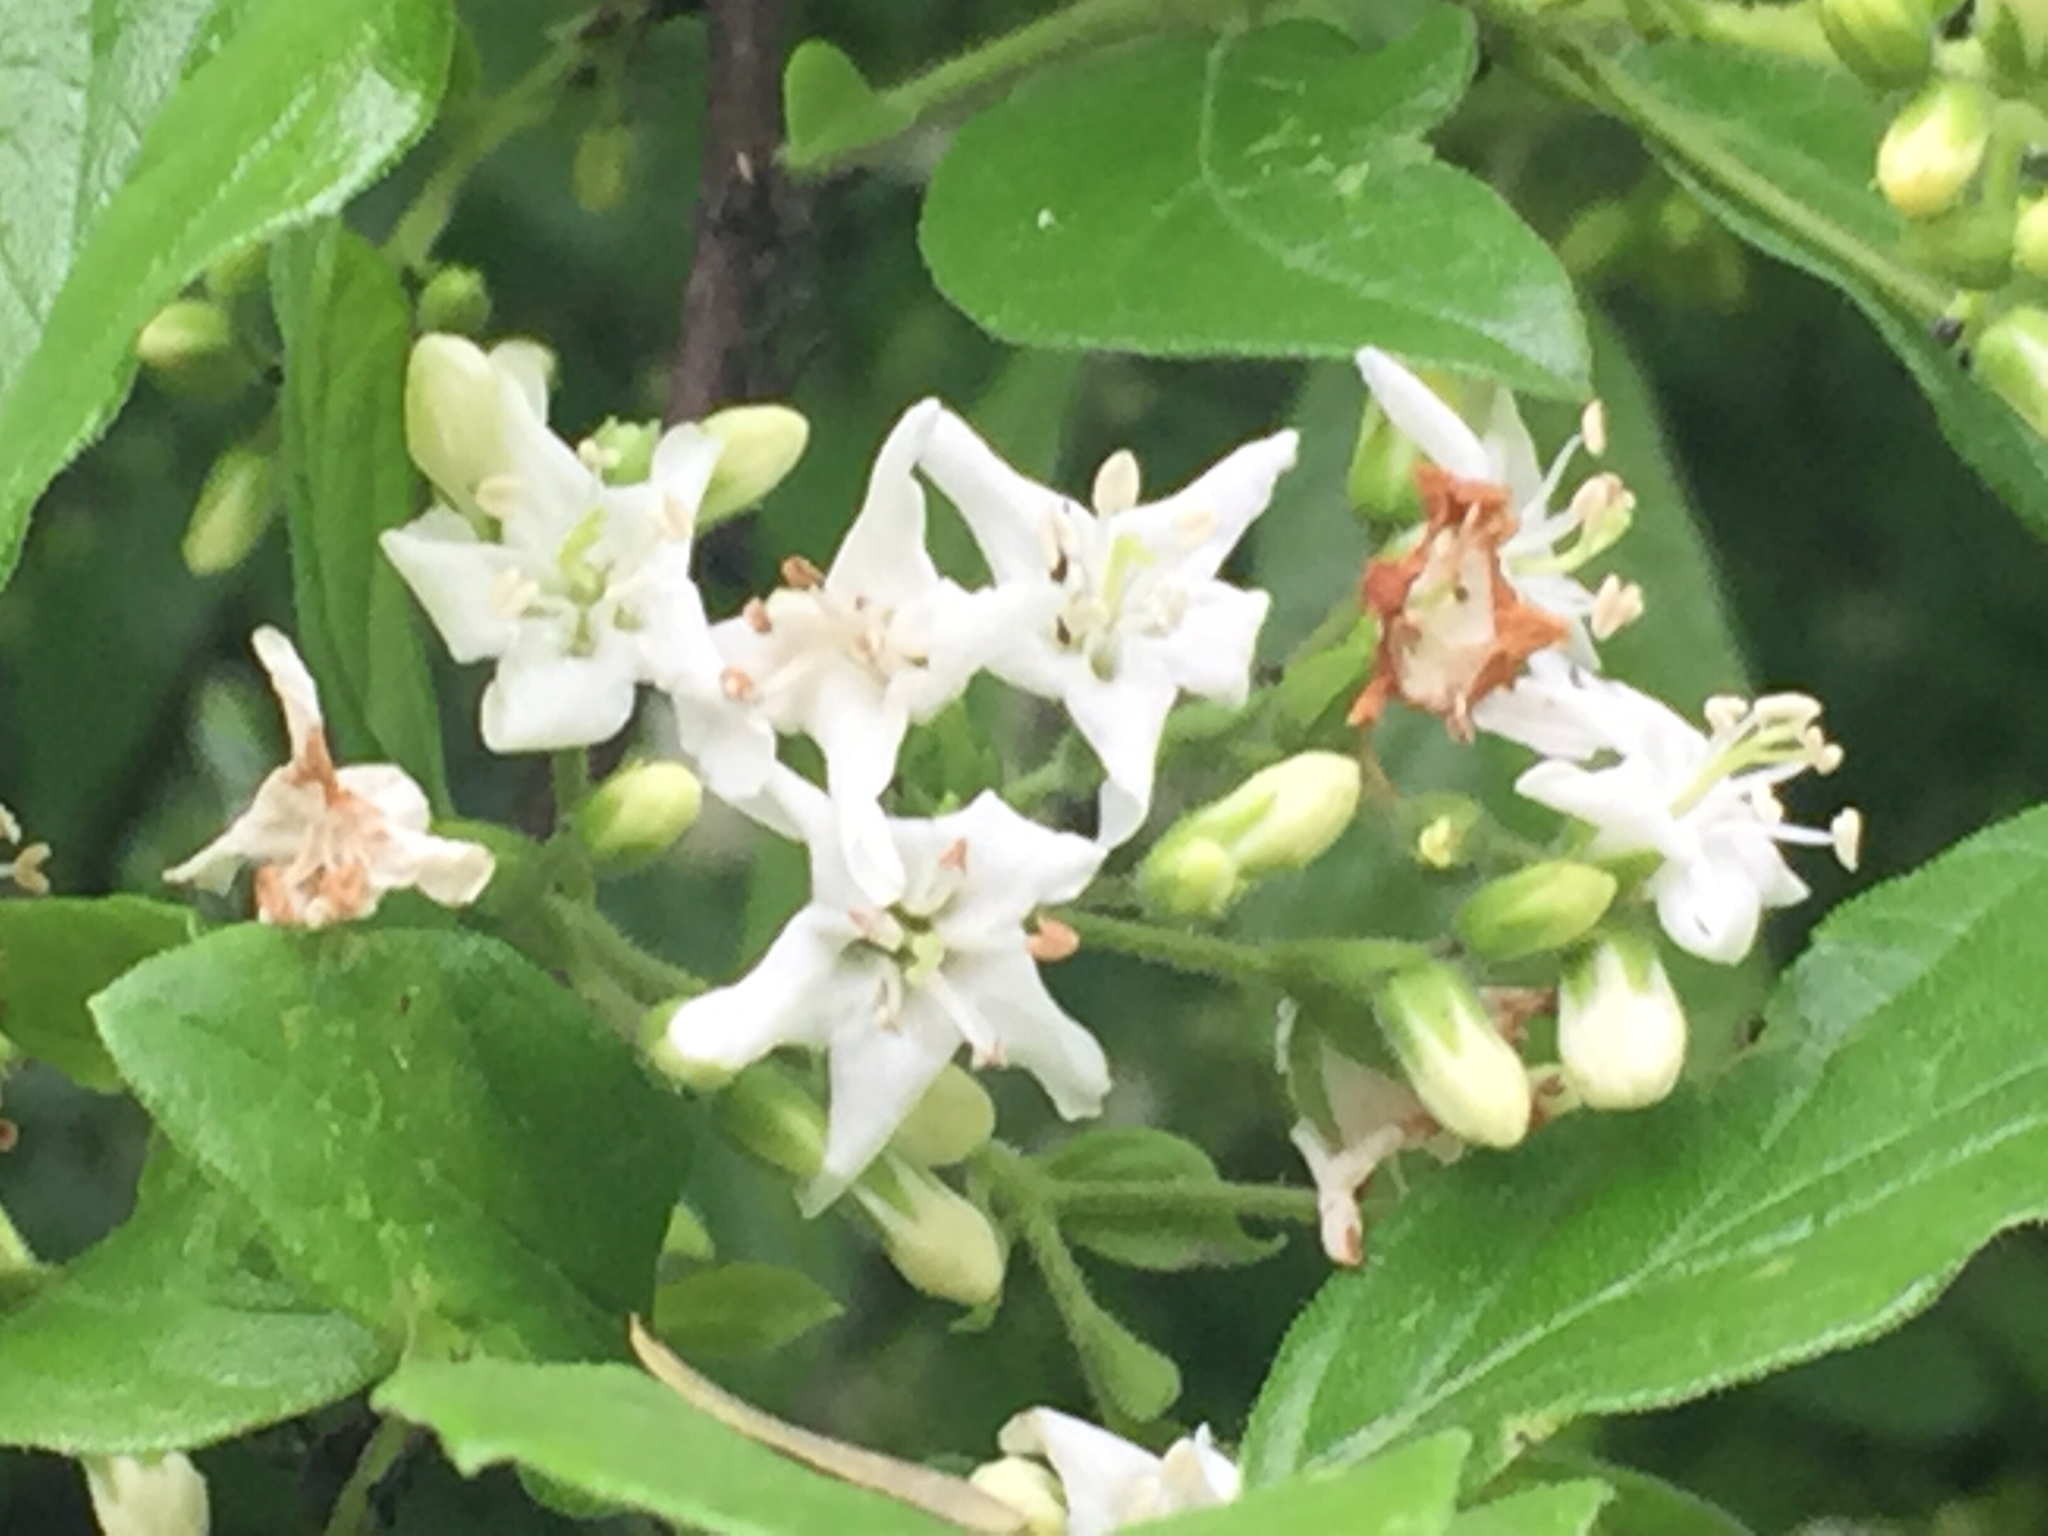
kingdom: Plantae
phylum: Tracheophyta
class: Magnoliopsida
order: Boraginales
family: Ehretiaceae
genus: Ehretia
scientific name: Ehretia anacua
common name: Sugarberry
